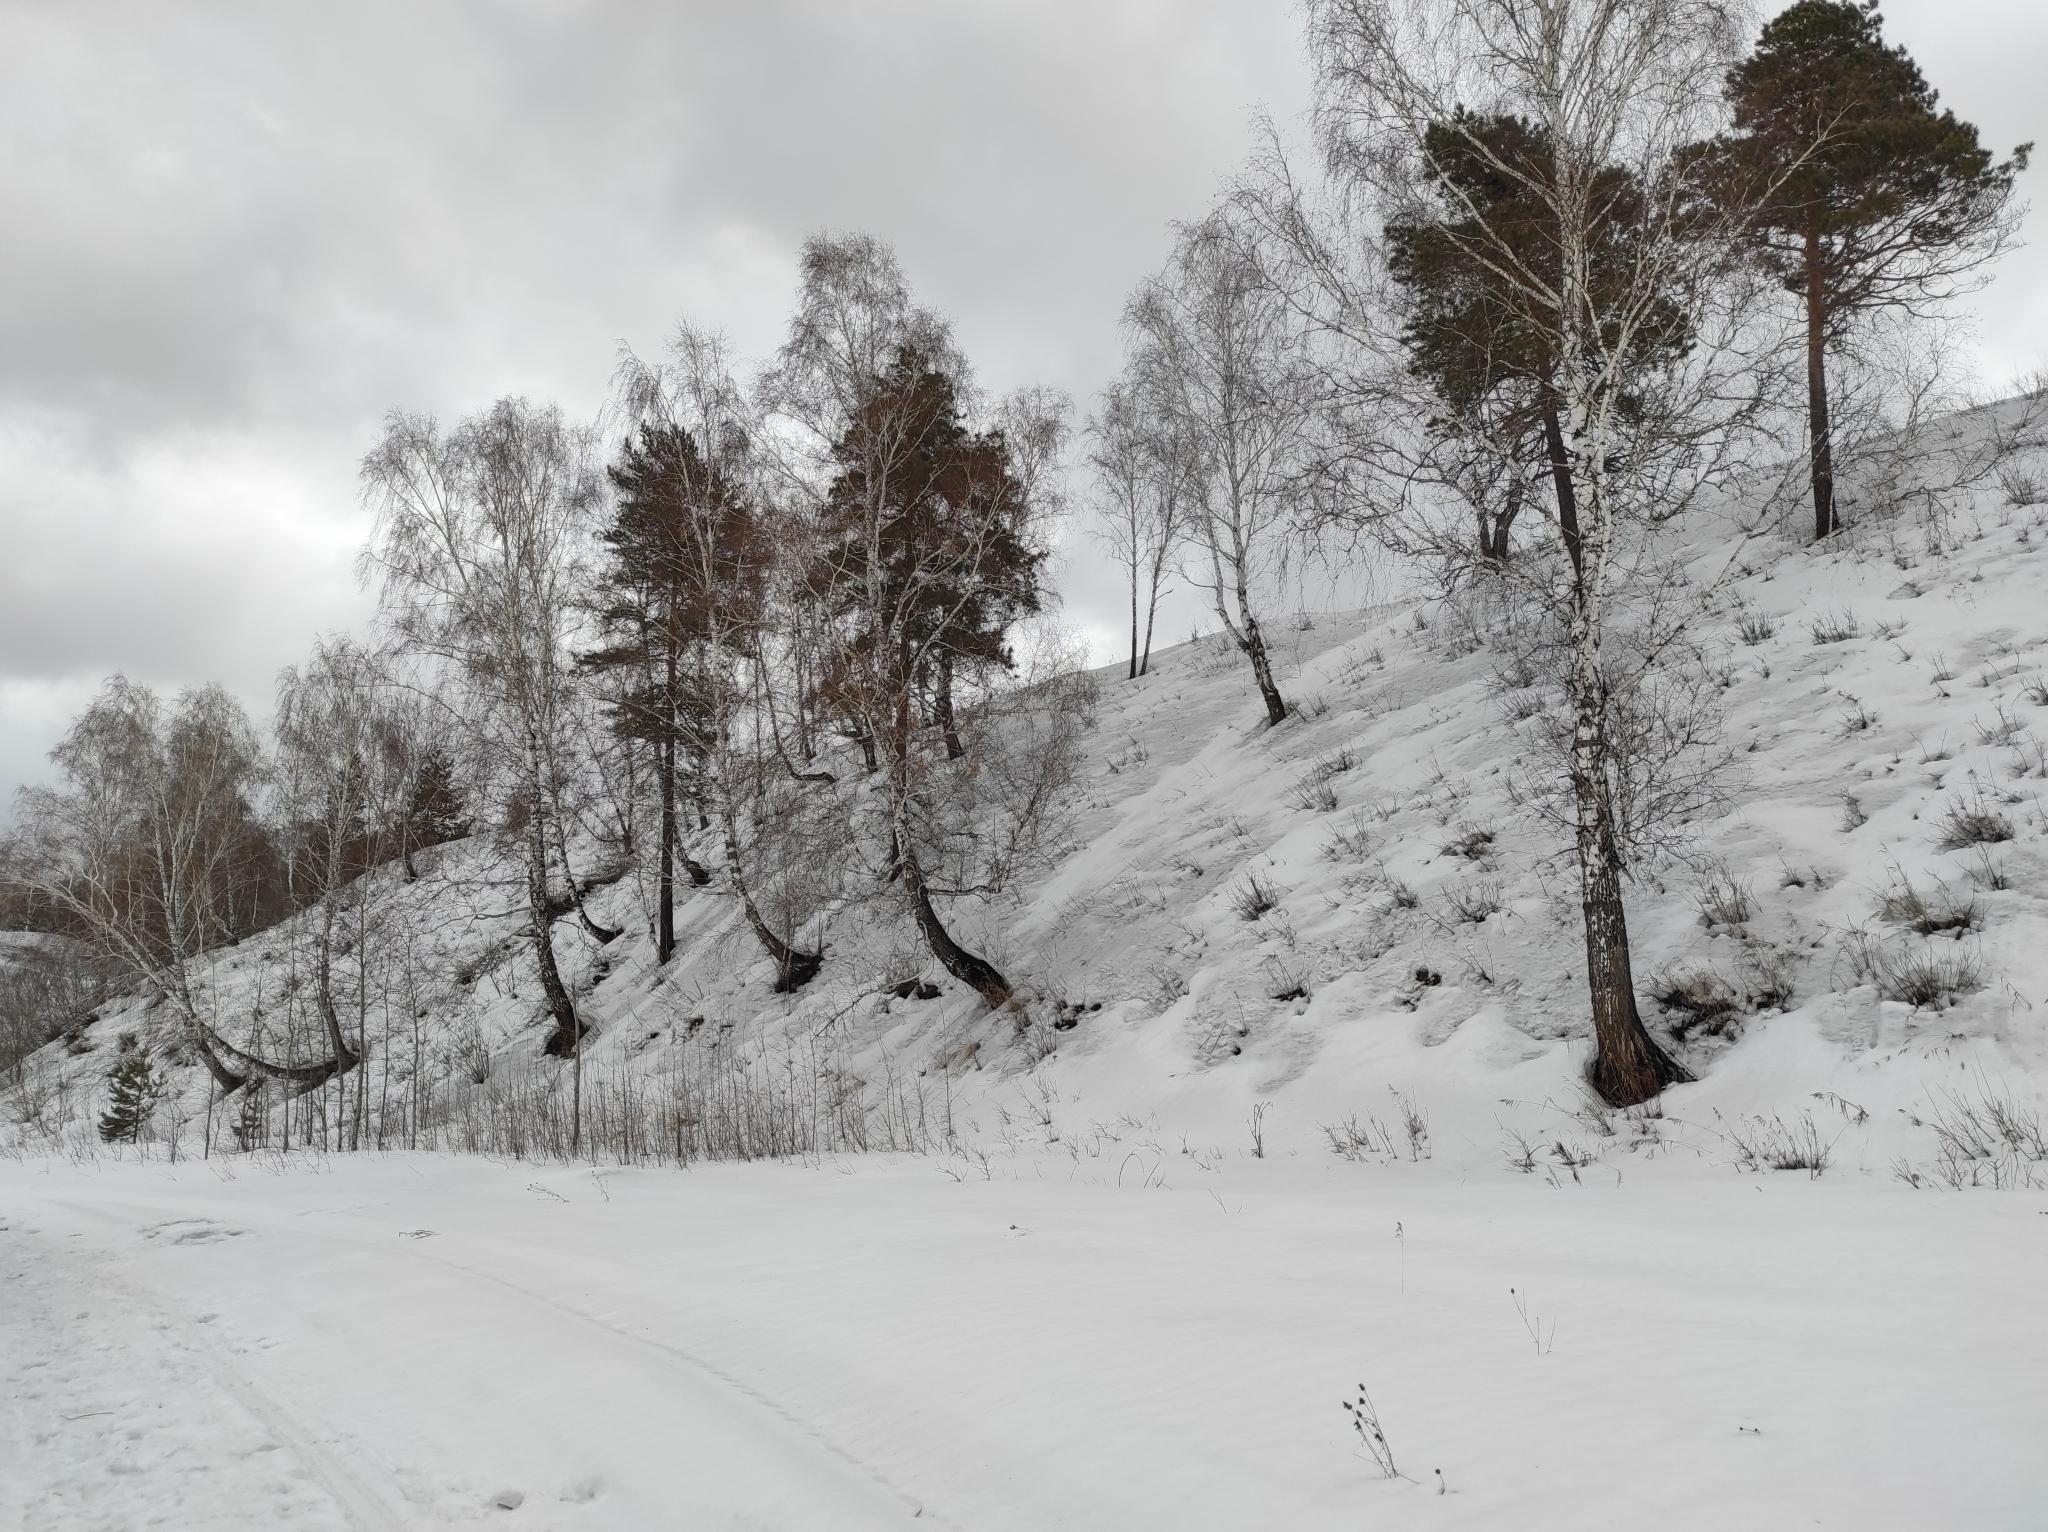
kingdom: Plantae
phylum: Tracheophyta
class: Magnoliopsida
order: Fagales
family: Betulaceae
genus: Betula
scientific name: Betula pendula
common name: Silver birch
